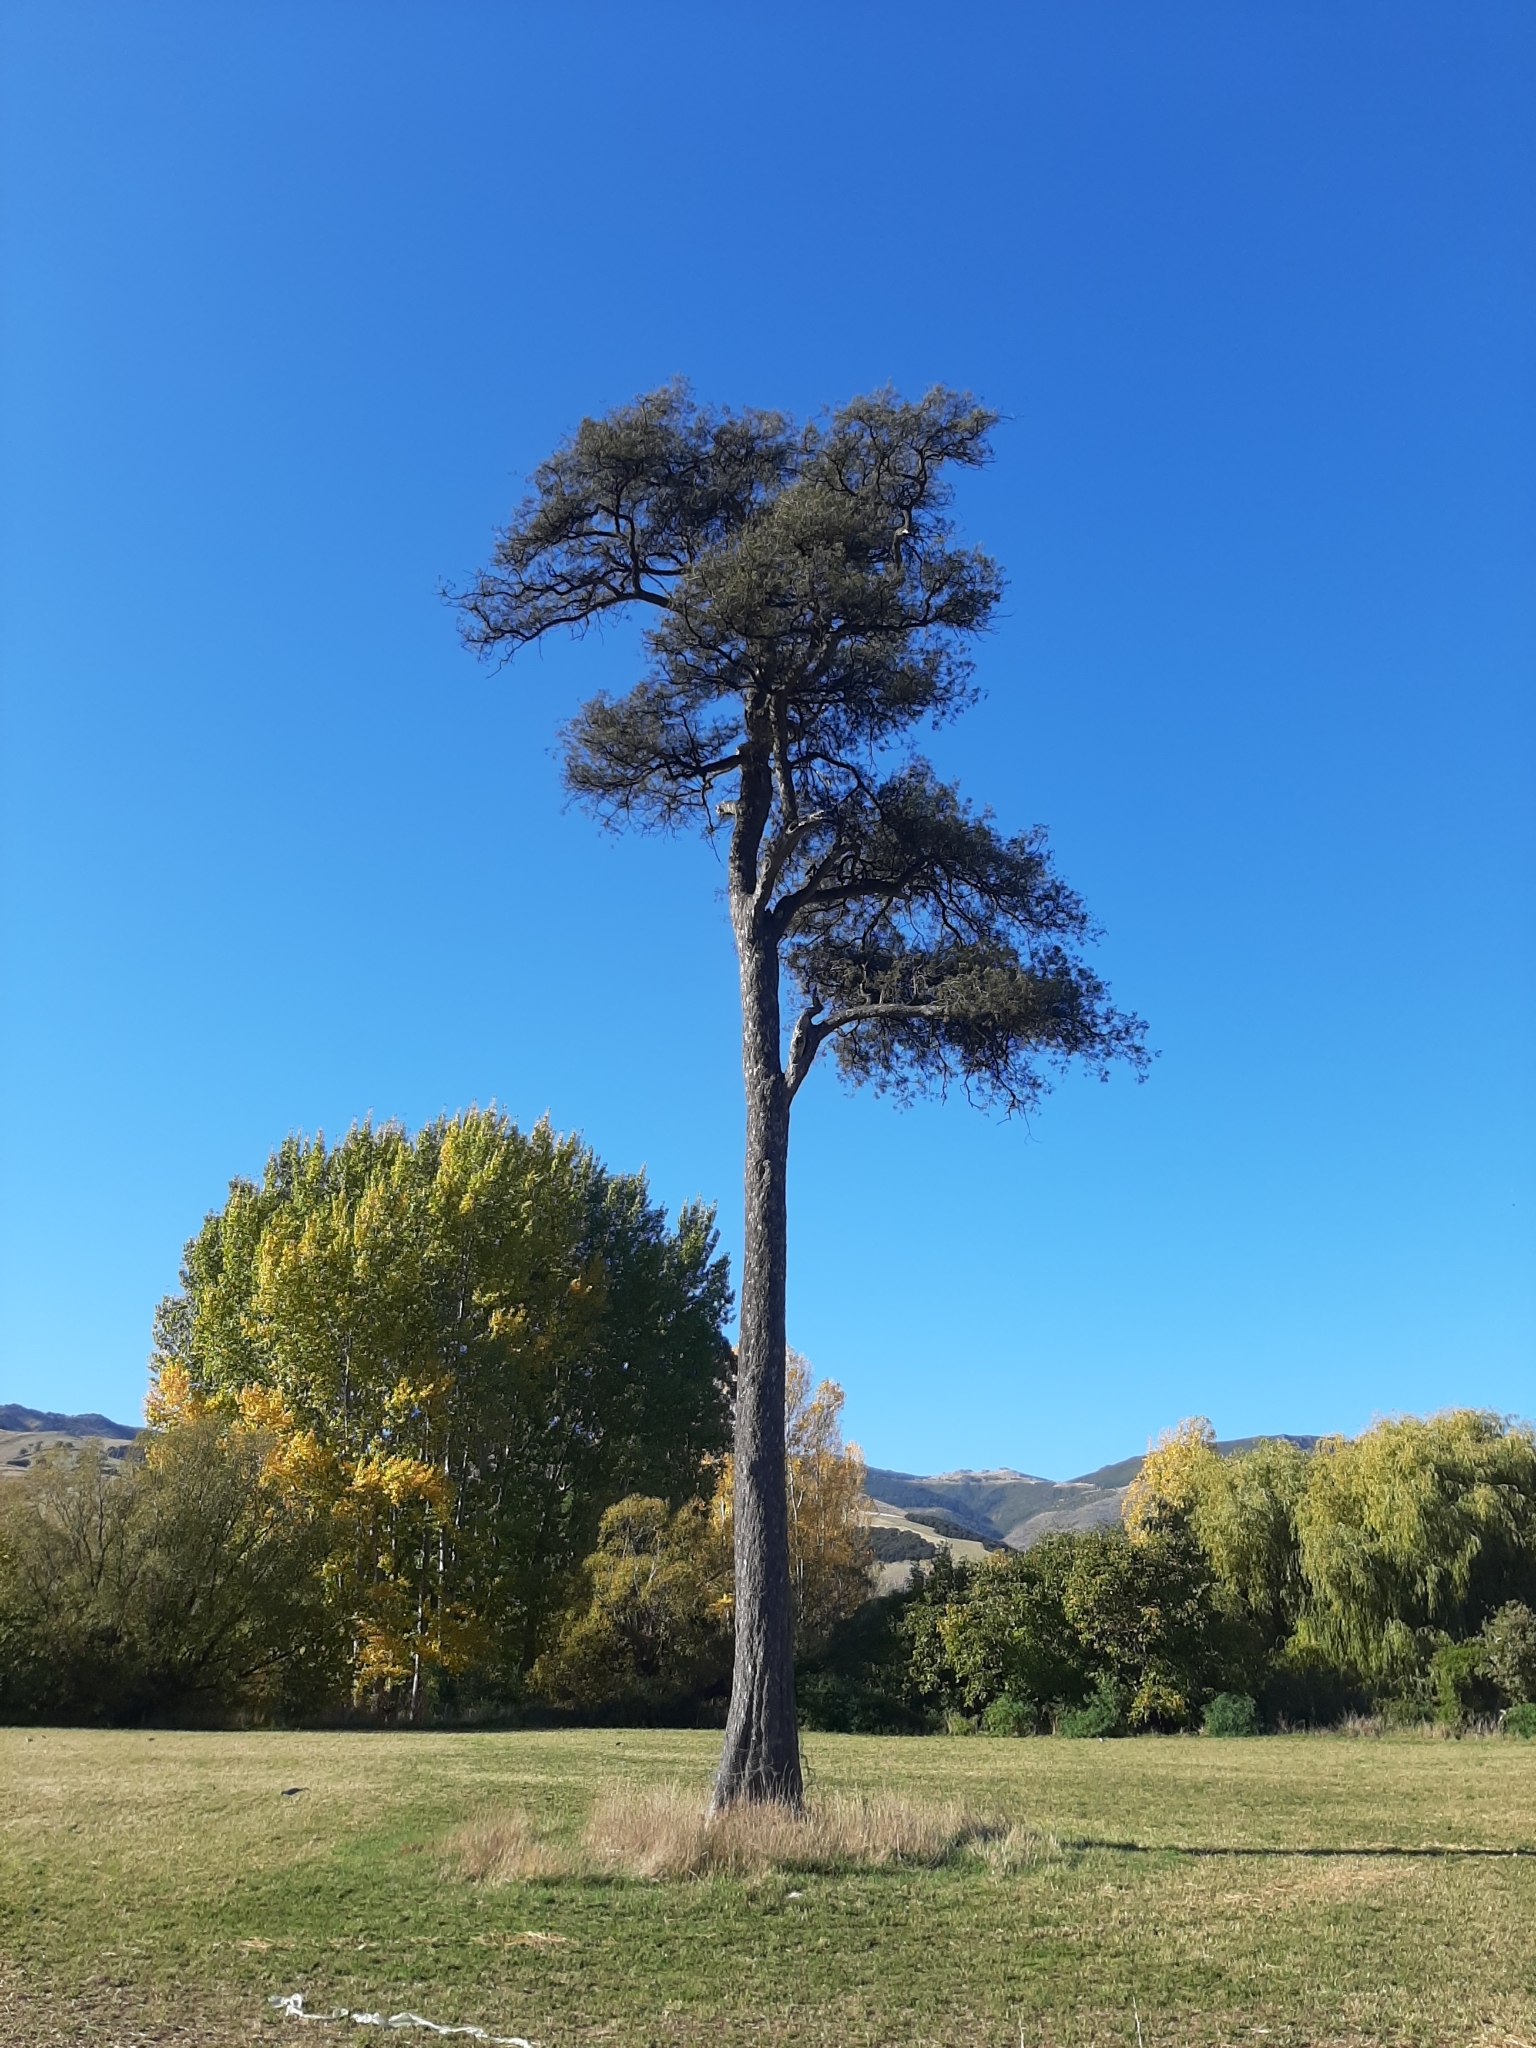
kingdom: Plantae
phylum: Tracheophyta
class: Pinopsida
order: Pinales
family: Podocarpaceae
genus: Dacrycarpus
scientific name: Dacrycarpus dacrydioides
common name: White pine
